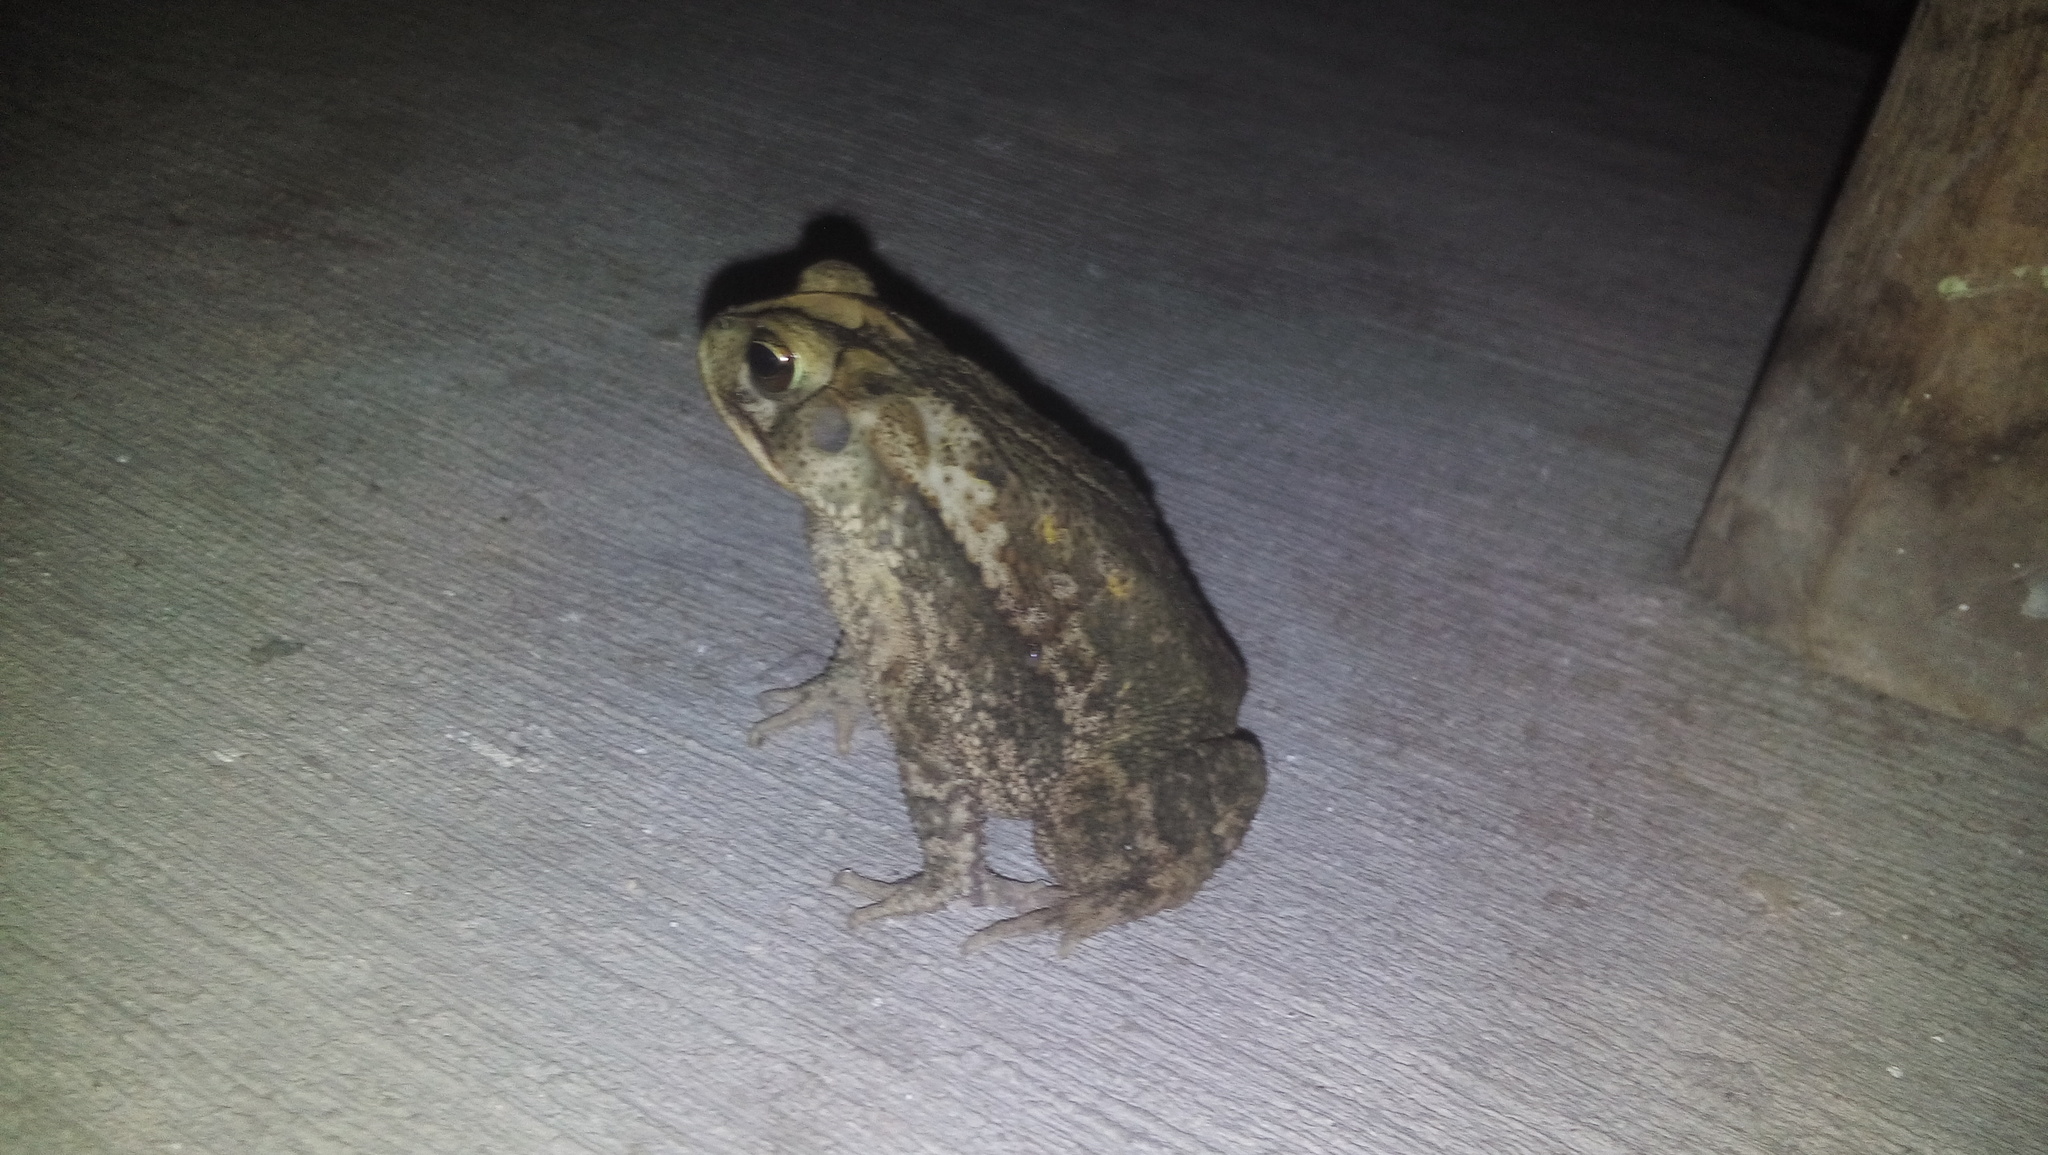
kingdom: Animalia
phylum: Chordata
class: Amphibia
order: Anura
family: Bufonidae
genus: Incilius
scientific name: Incilius valliceps
